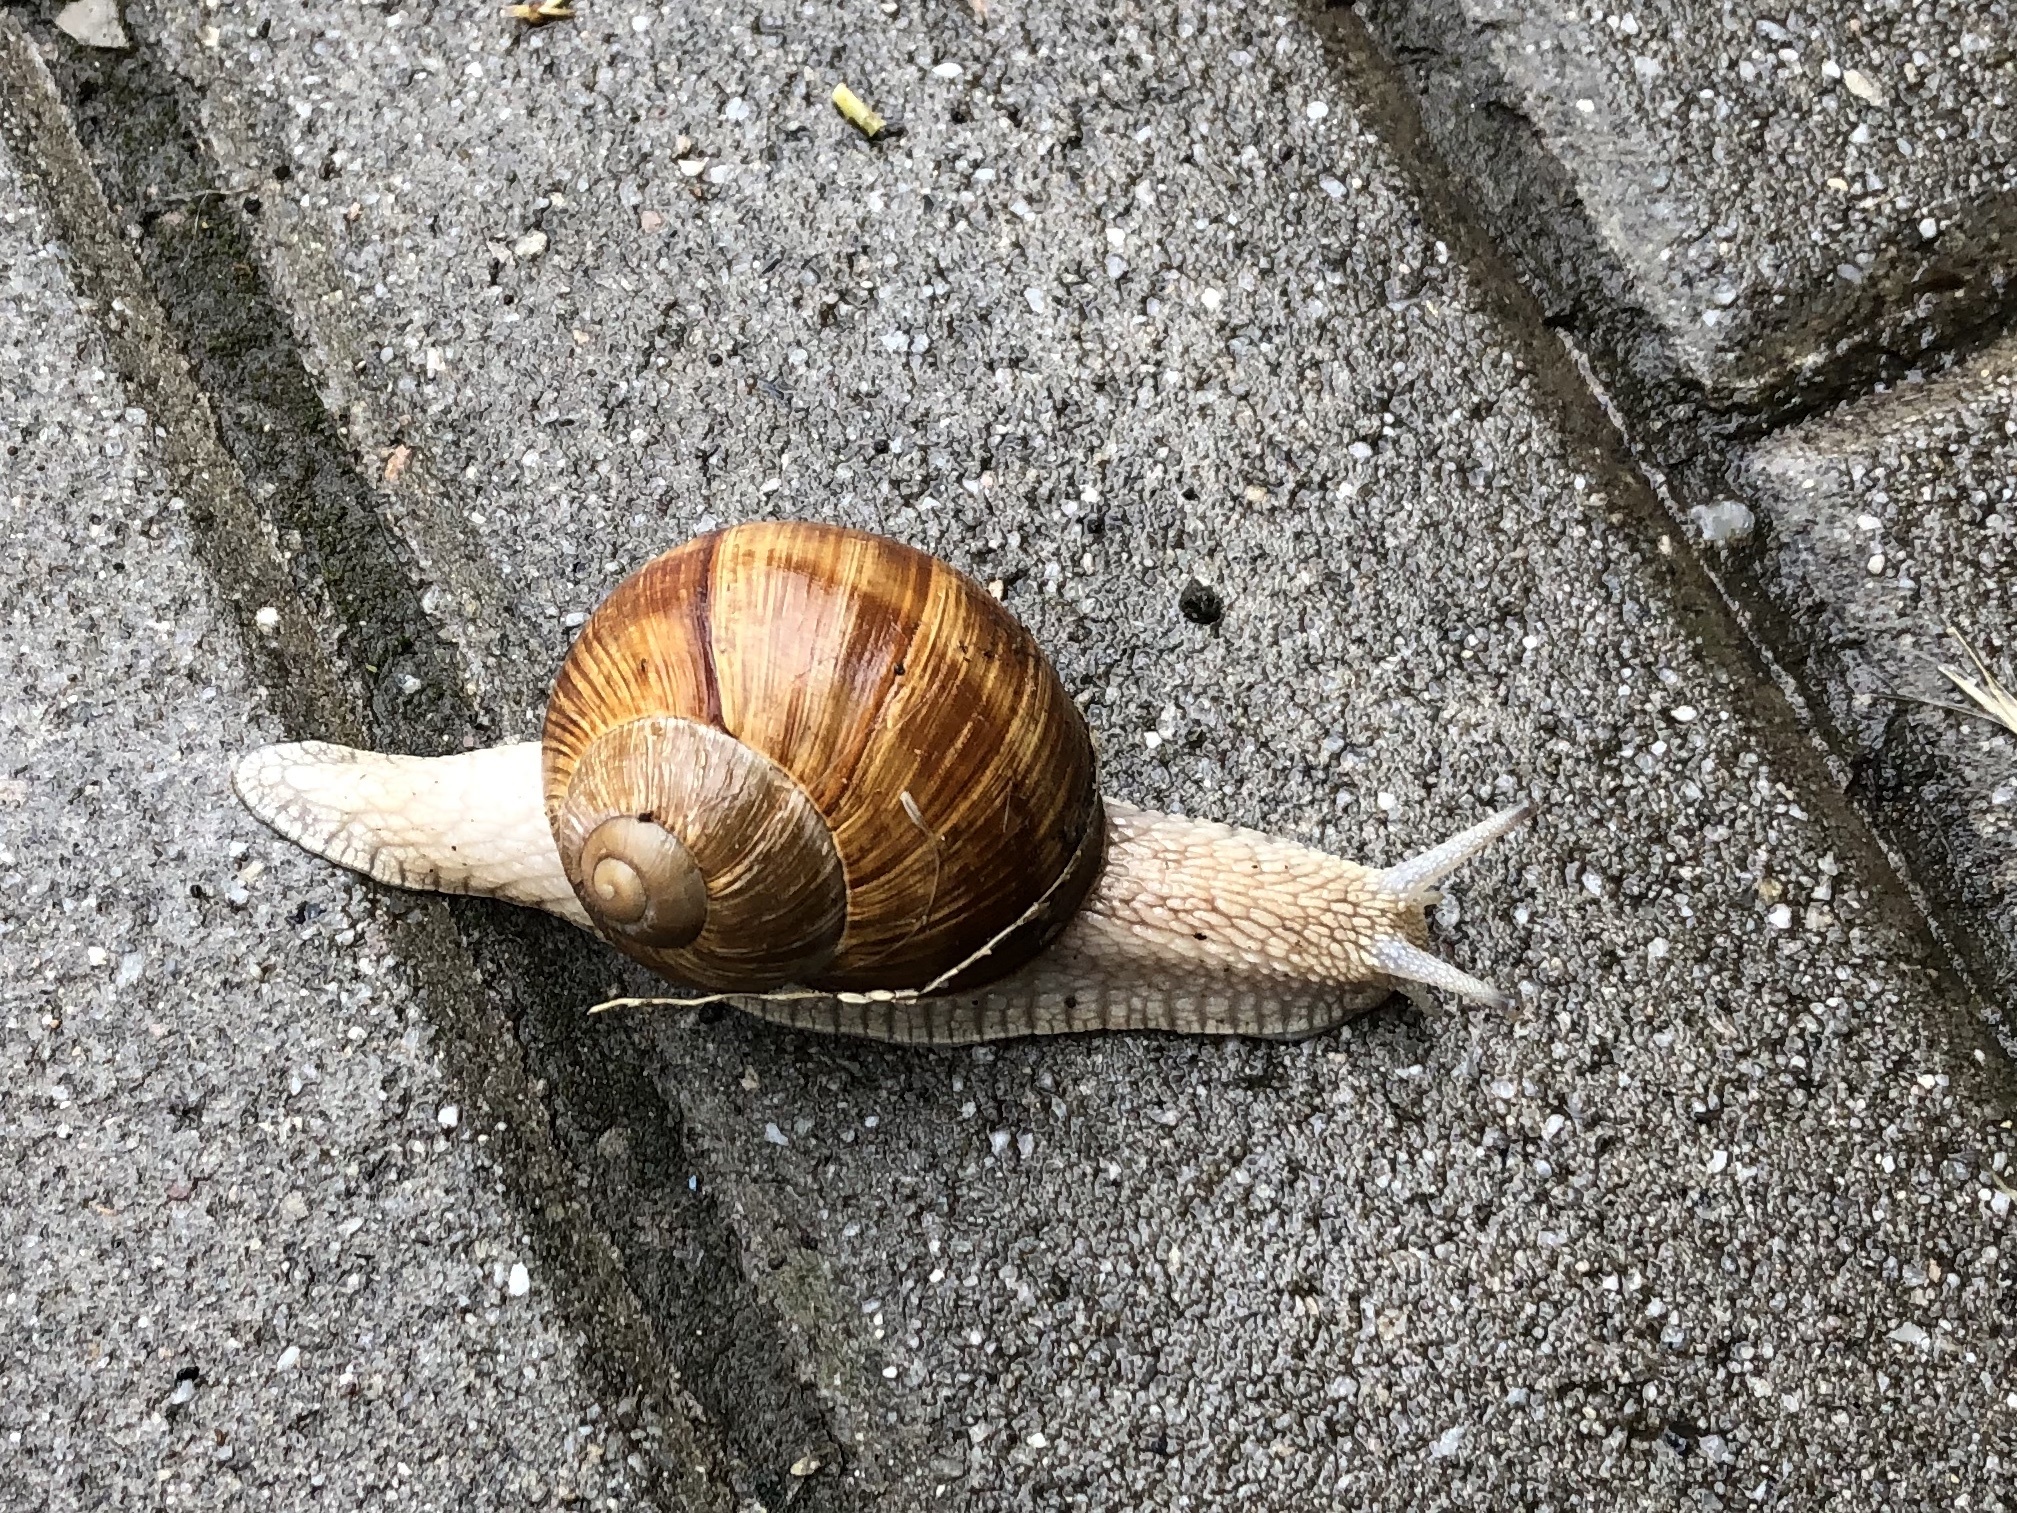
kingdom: Animalia
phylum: Mollusca
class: Gastropoda
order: Stylommatophora
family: Helicidae
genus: Helix
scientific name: Helix pomatia
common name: Roman snail
